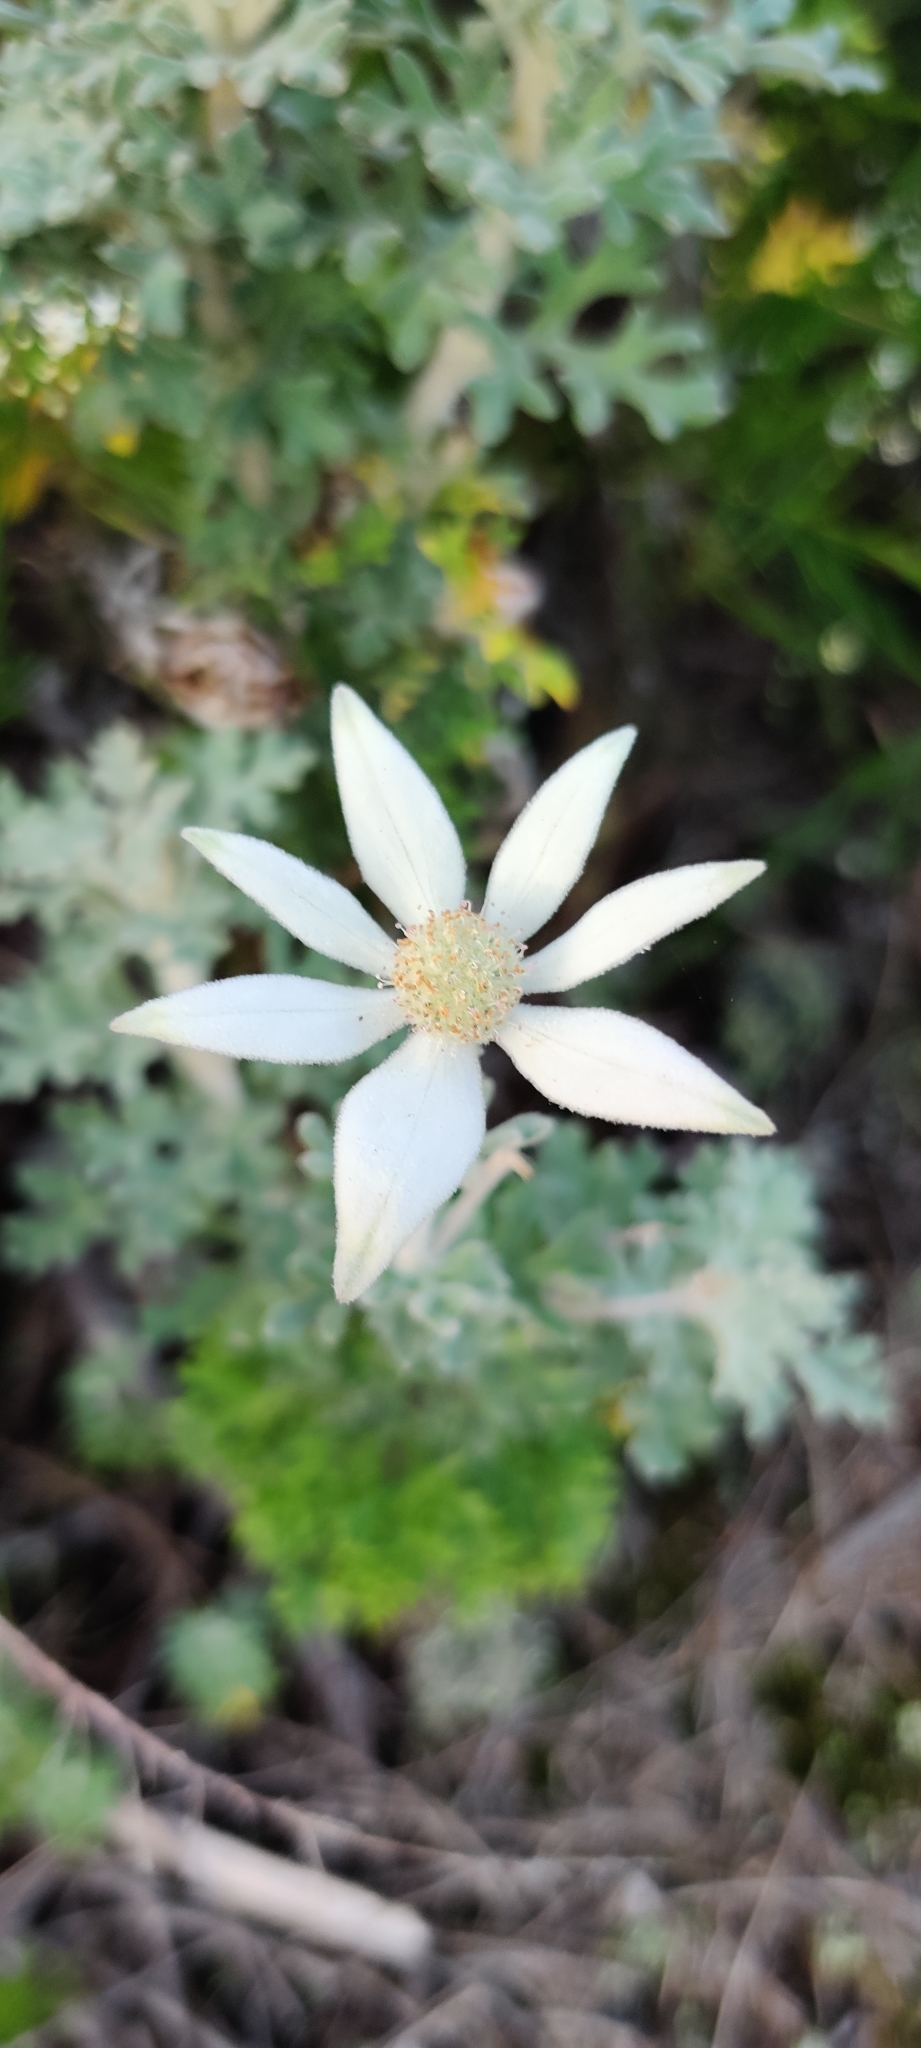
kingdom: Plantae
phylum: Tracheophyta
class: Magnoliopsida
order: Apiales
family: Apiaceae
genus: Actinotus
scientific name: Actinotus helianthi
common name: Flannel-flower
